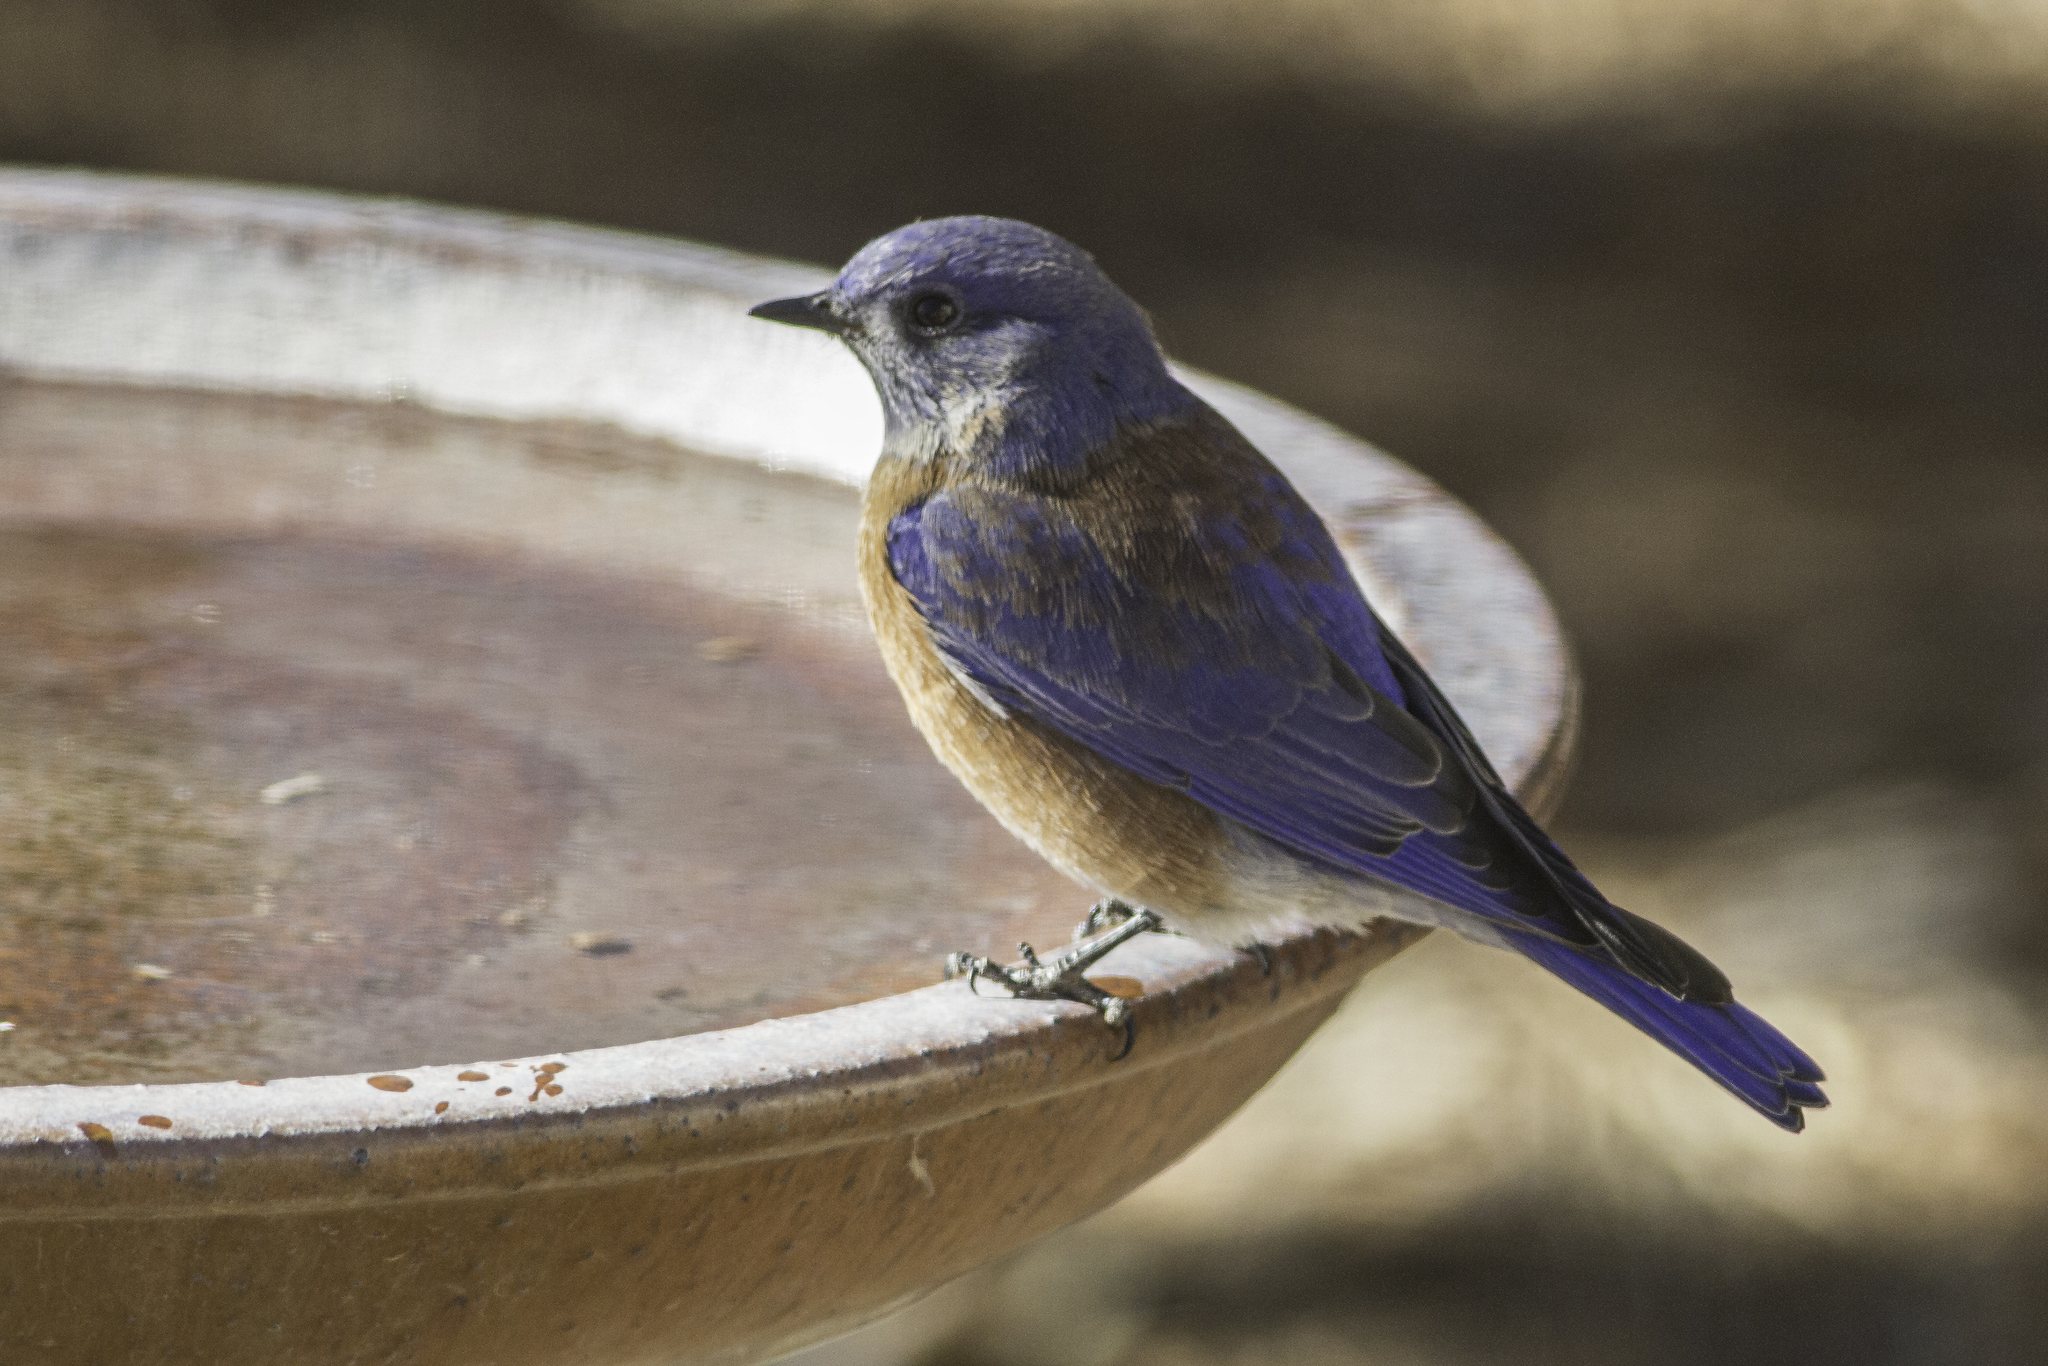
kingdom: Animalia
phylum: Chordata
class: Aves
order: Passeriformes
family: Turdidae
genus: Sialia
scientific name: Sialia mexicana
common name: Western bluebird
